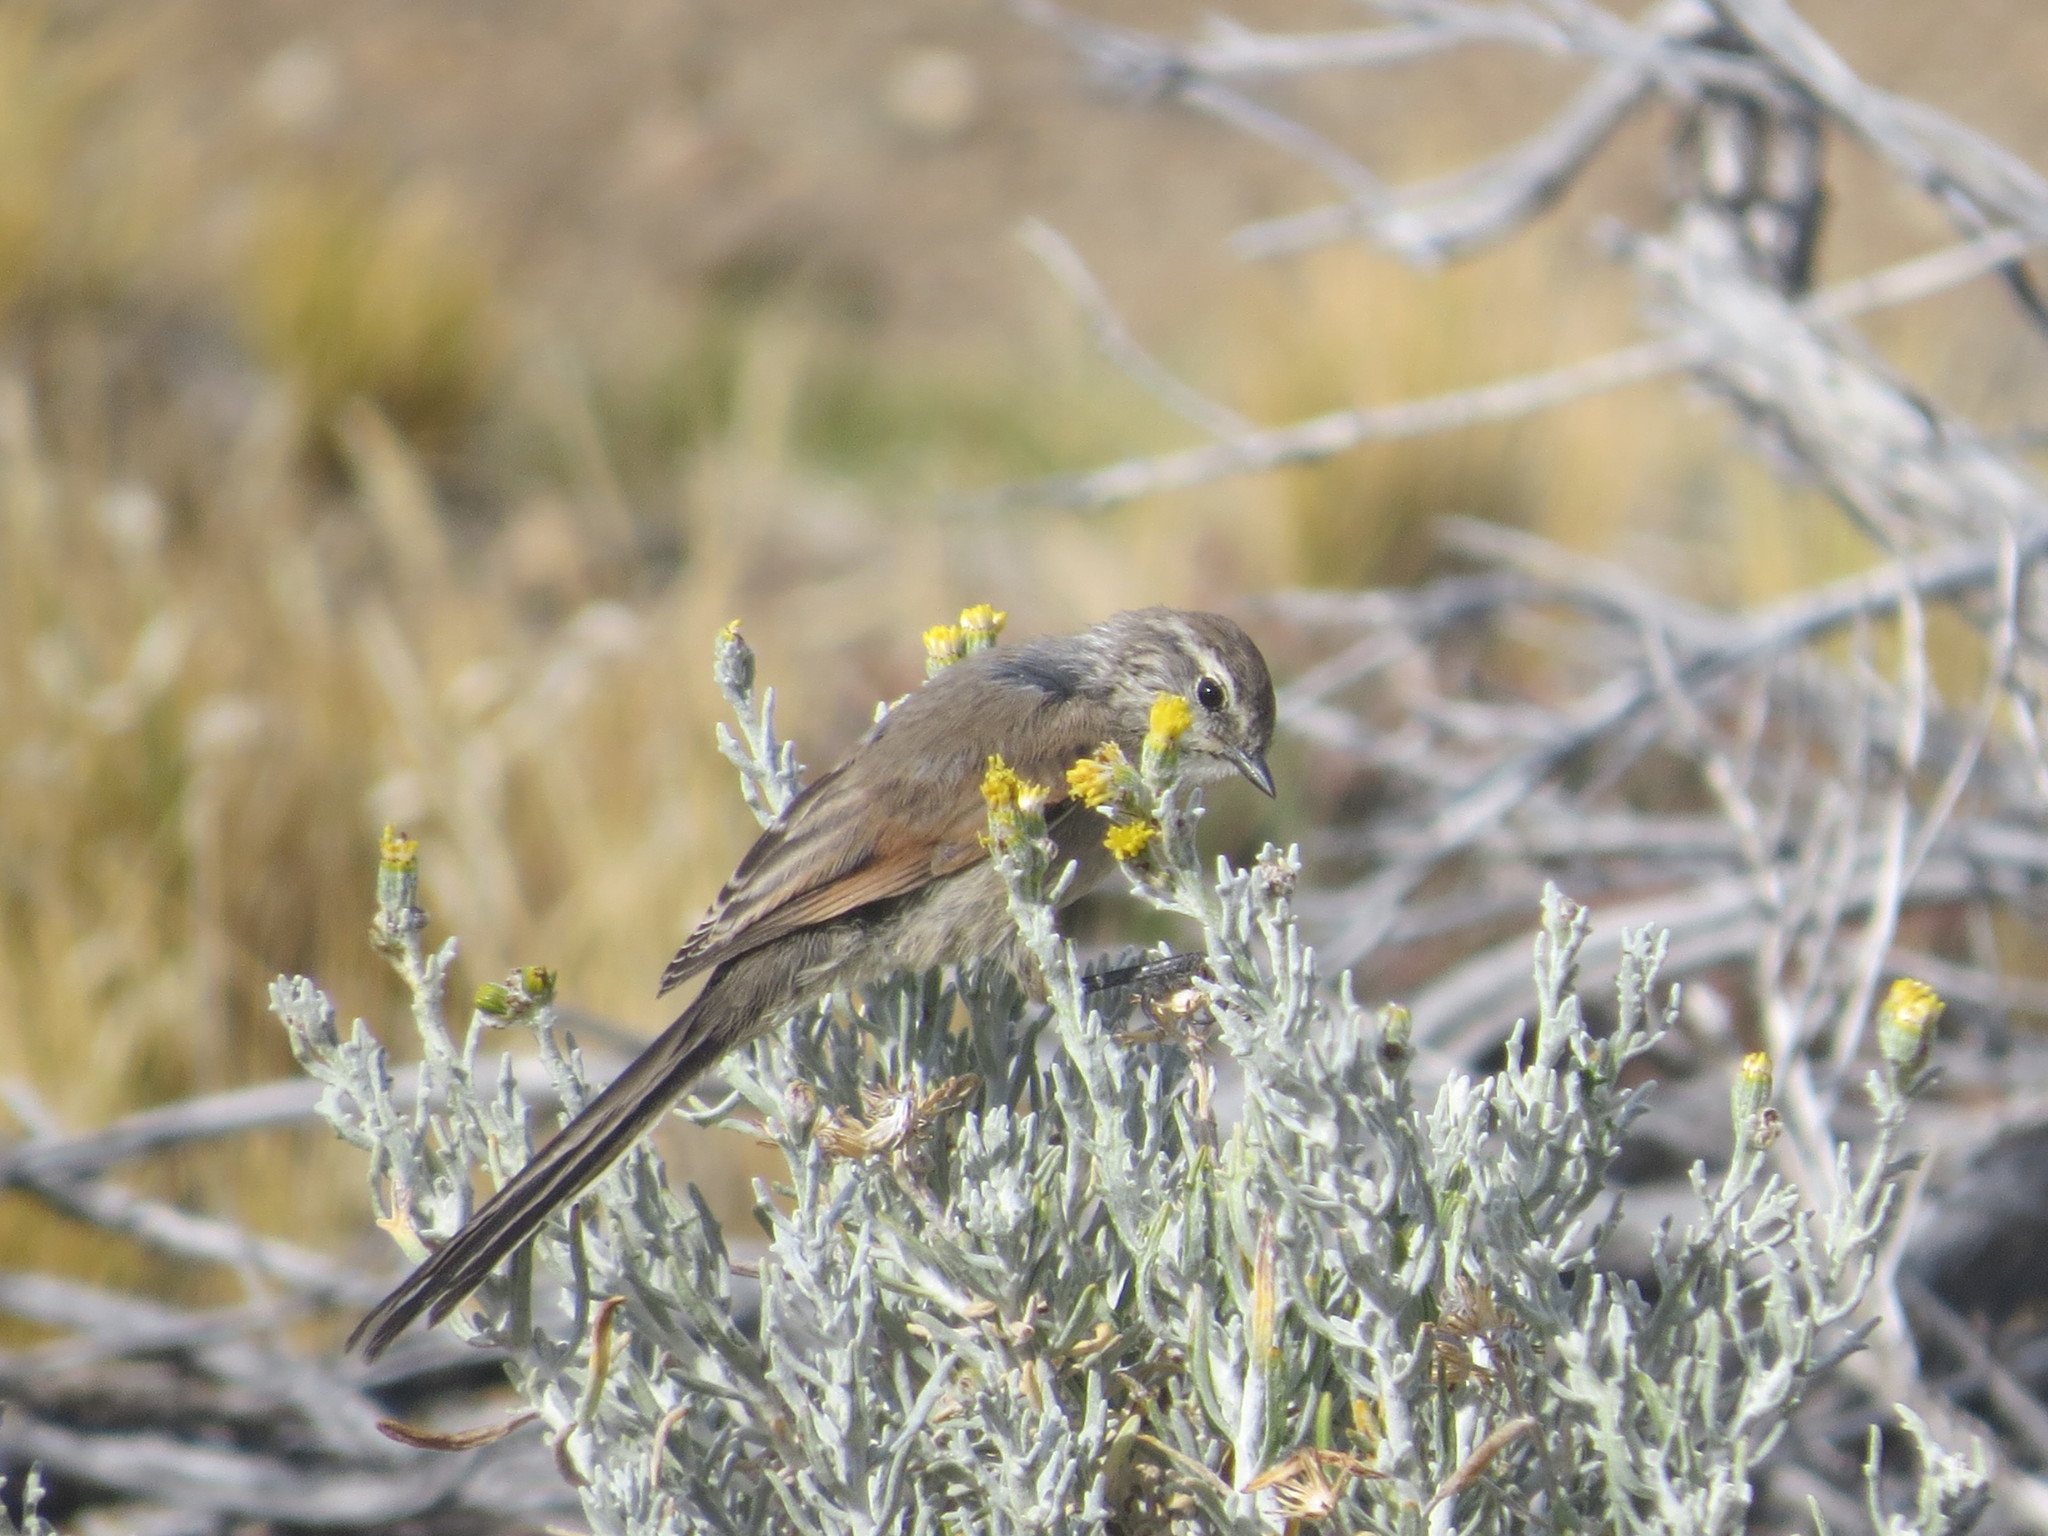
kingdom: Animalia
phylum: Chordata
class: Aves
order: Passeriformes
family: Furnariidae
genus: Leptasthenura
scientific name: Leptasthenura aegithaloides
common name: Plain-mantled tit-spinetail
